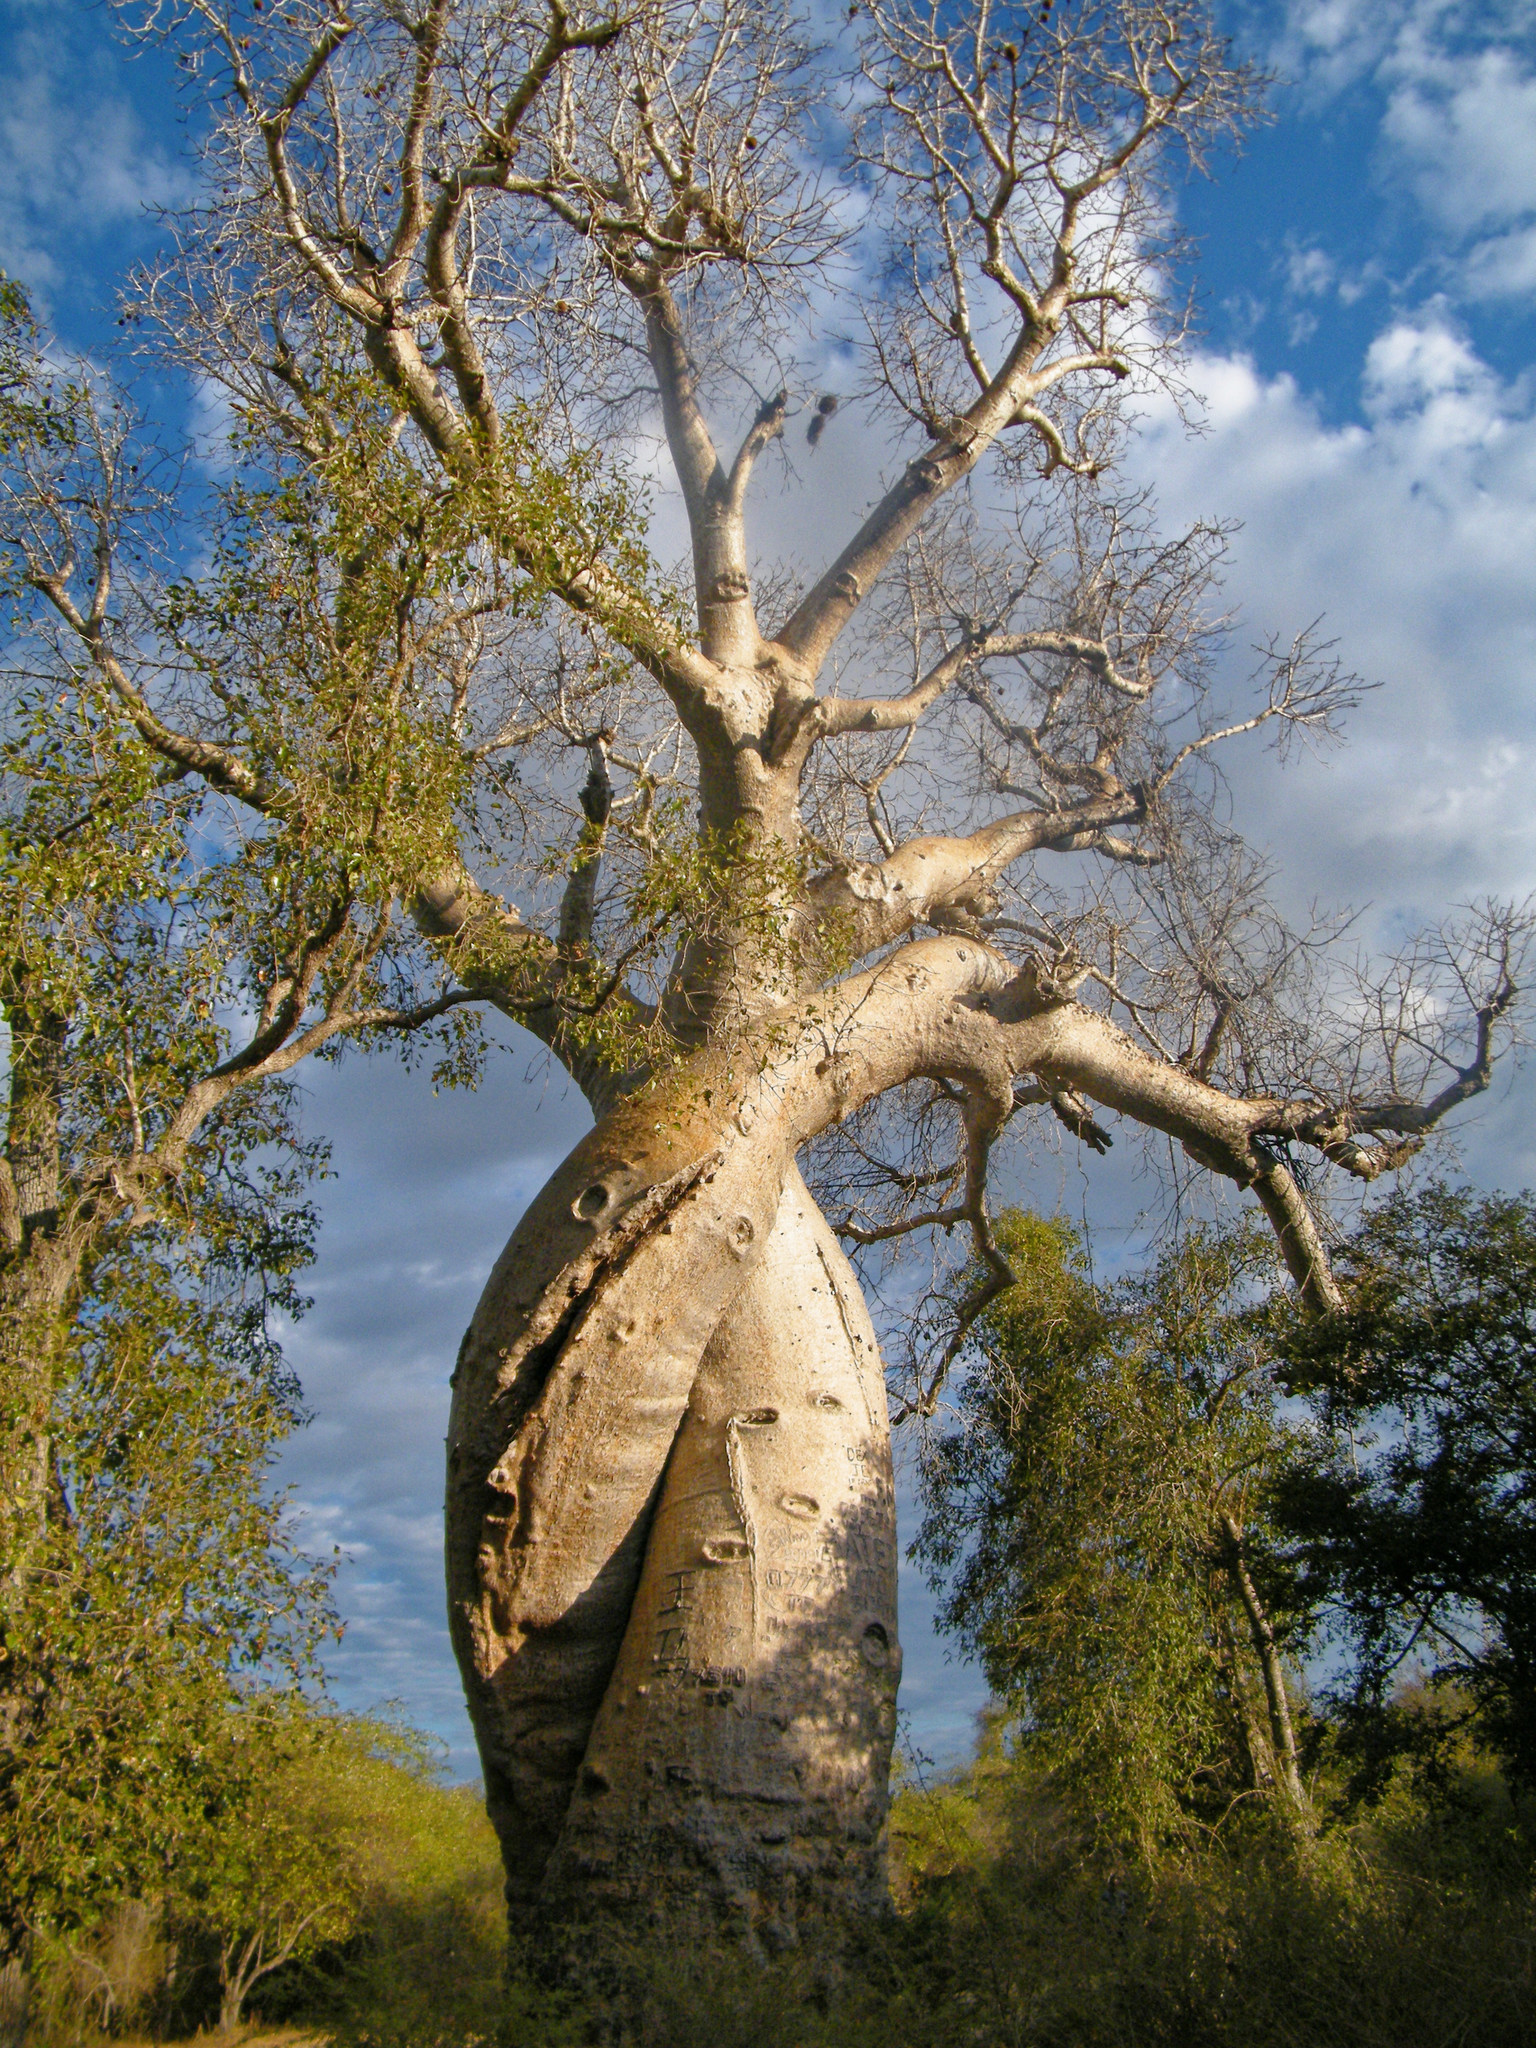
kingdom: Plantae
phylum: Tracheophyta
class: Magnoliopsida
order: Malvales
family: Malvaceae
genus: Adansonia
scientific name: Adansonia rubrostipa
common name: Fony baobab
